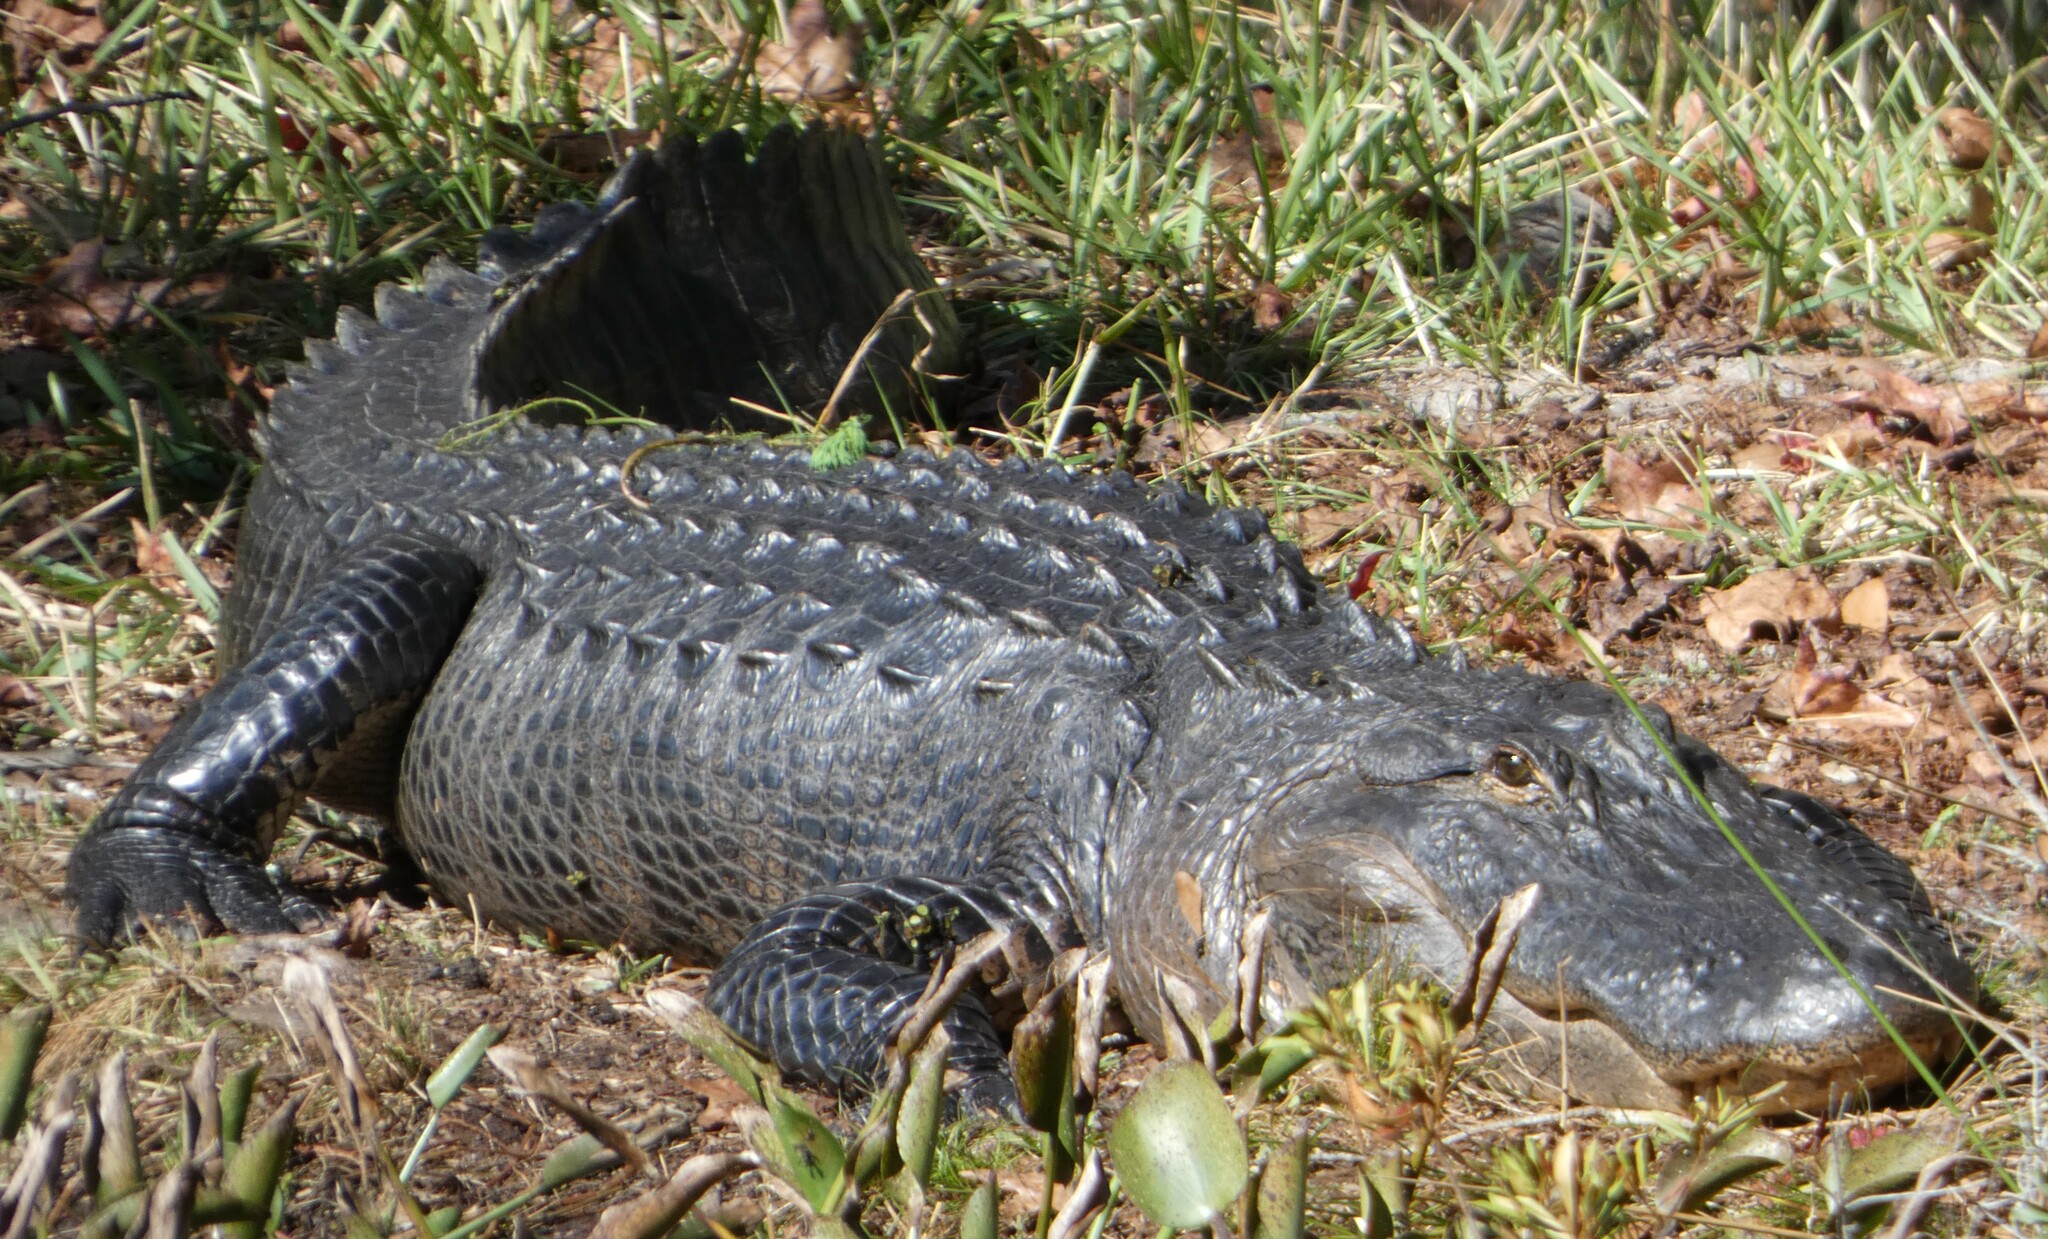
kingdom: Animalia
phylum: Chordata
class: Crocodylia
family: Alligatoridae
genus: Alligator
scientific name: Alligator mississippiensis
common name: American alligator
